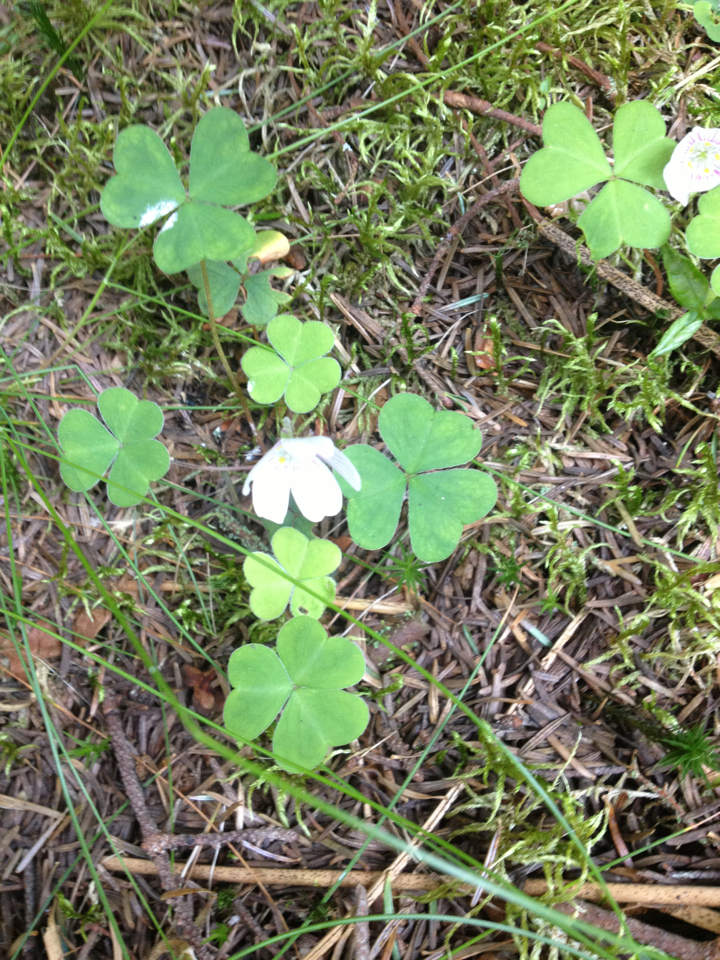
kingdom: Plantae
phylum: Tracheophyta
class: Magnoliopsida
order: Oxalidales
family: Oxalidaceae
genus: Oxalis
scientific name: Oxalis montana
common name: American wood-sorrel
